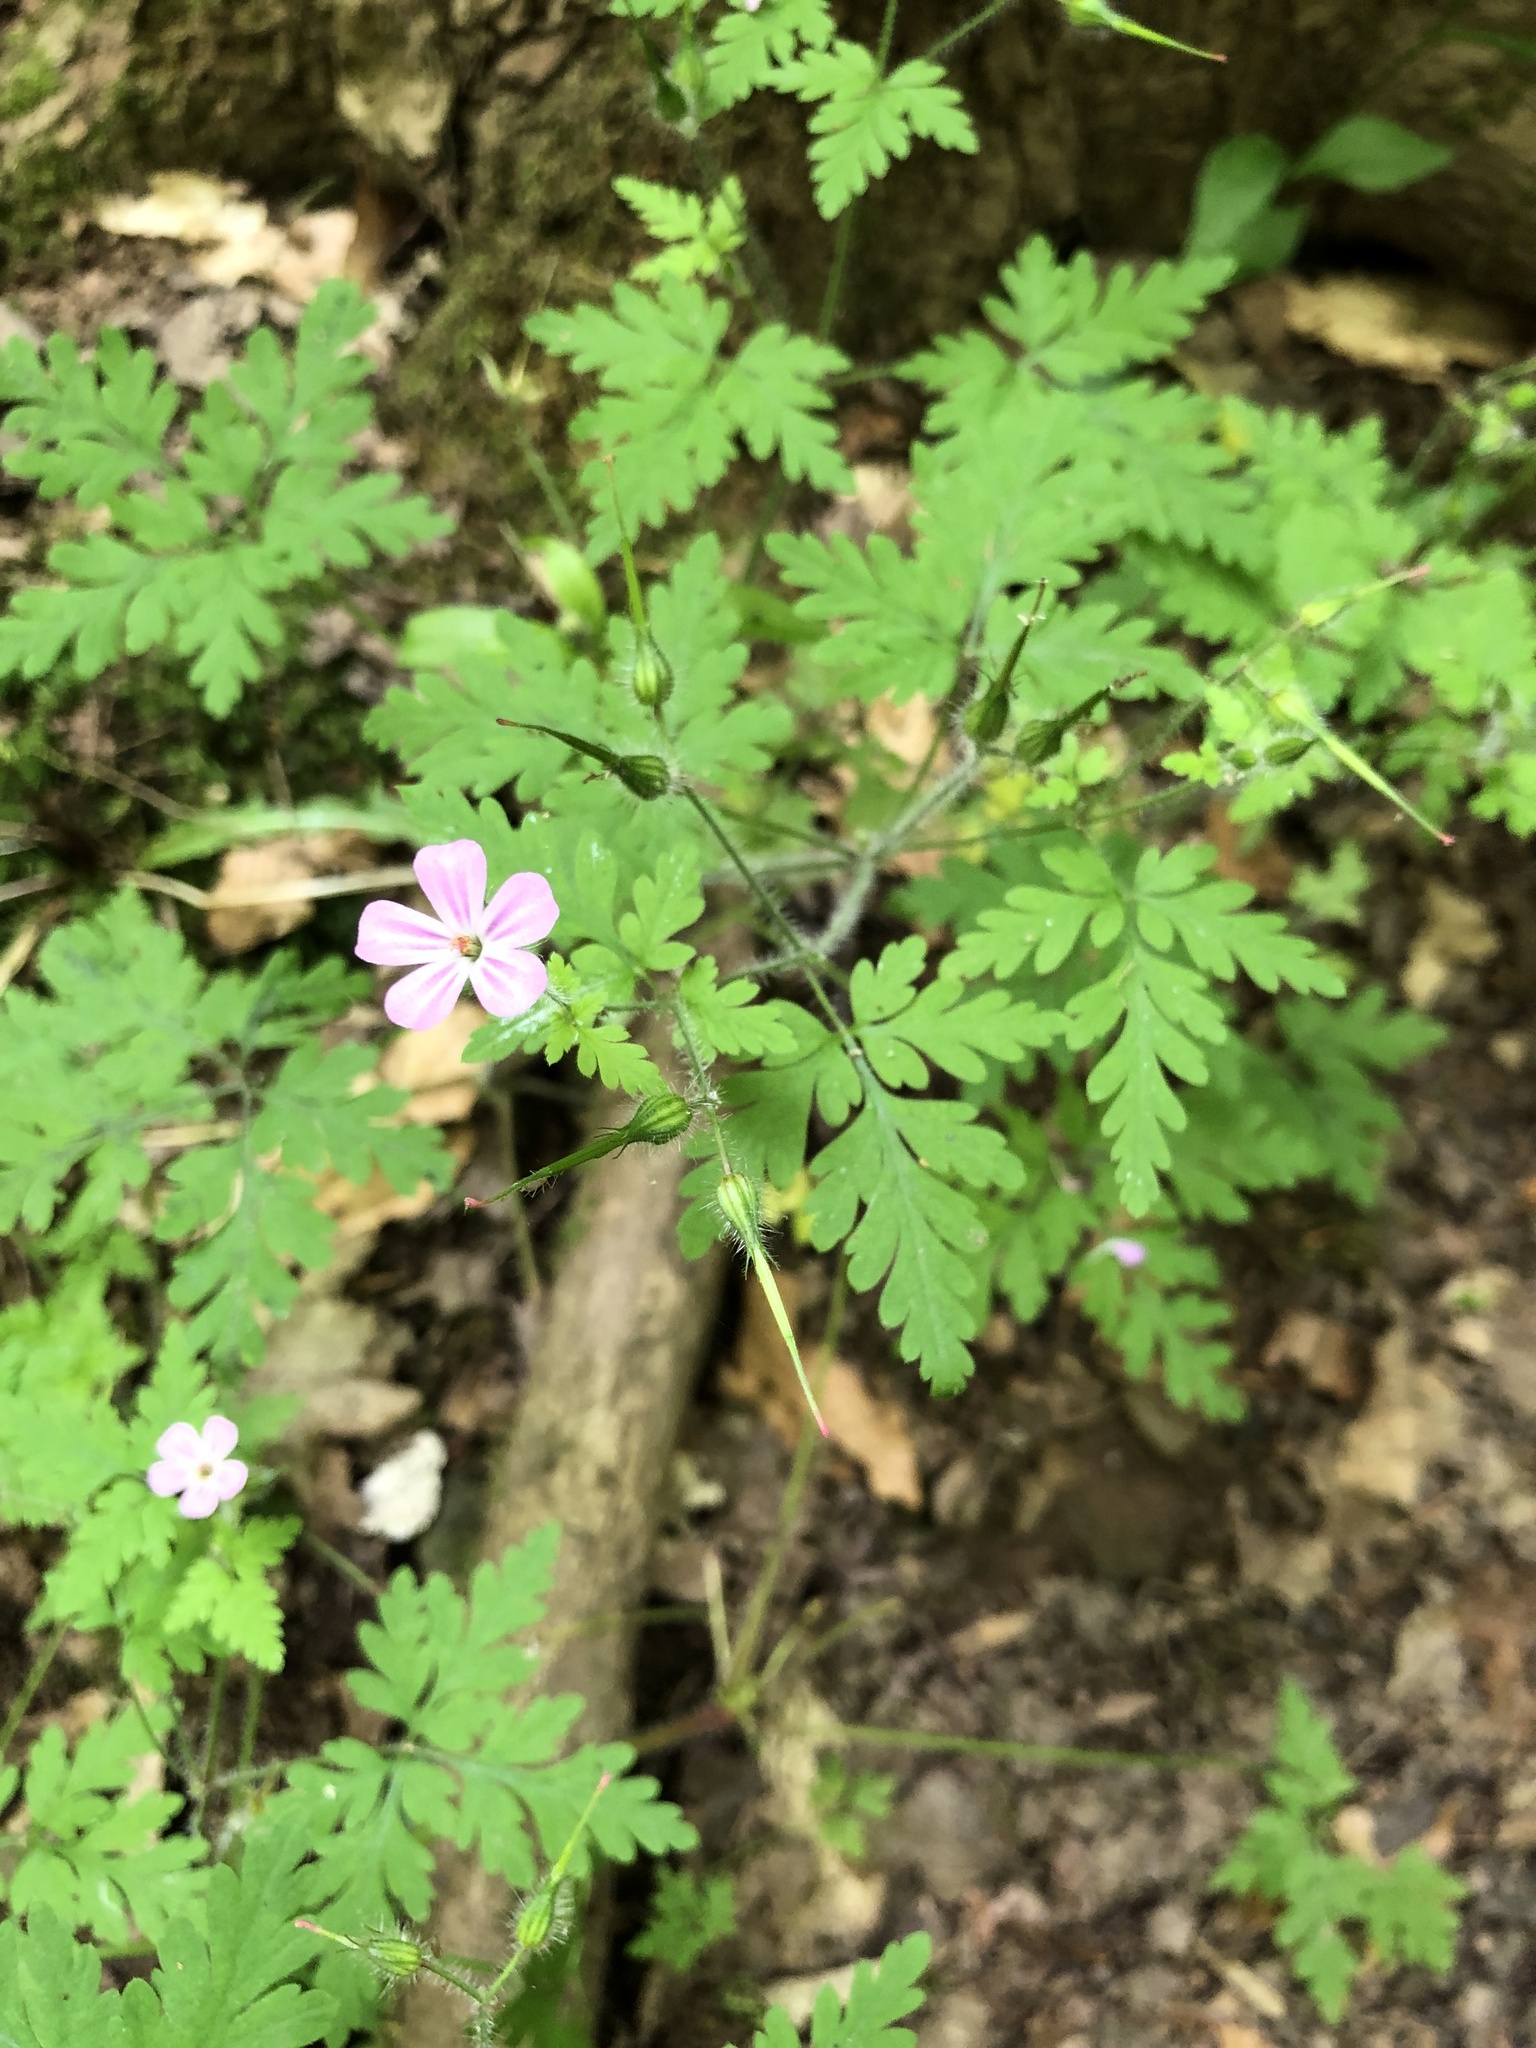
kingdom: Plantae
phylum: Tracheophyta
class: Magnoliopsida
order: Geraniales
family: Geraniaceae
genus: Geranium
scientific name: Geranium robertianum
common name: Herb-robert
